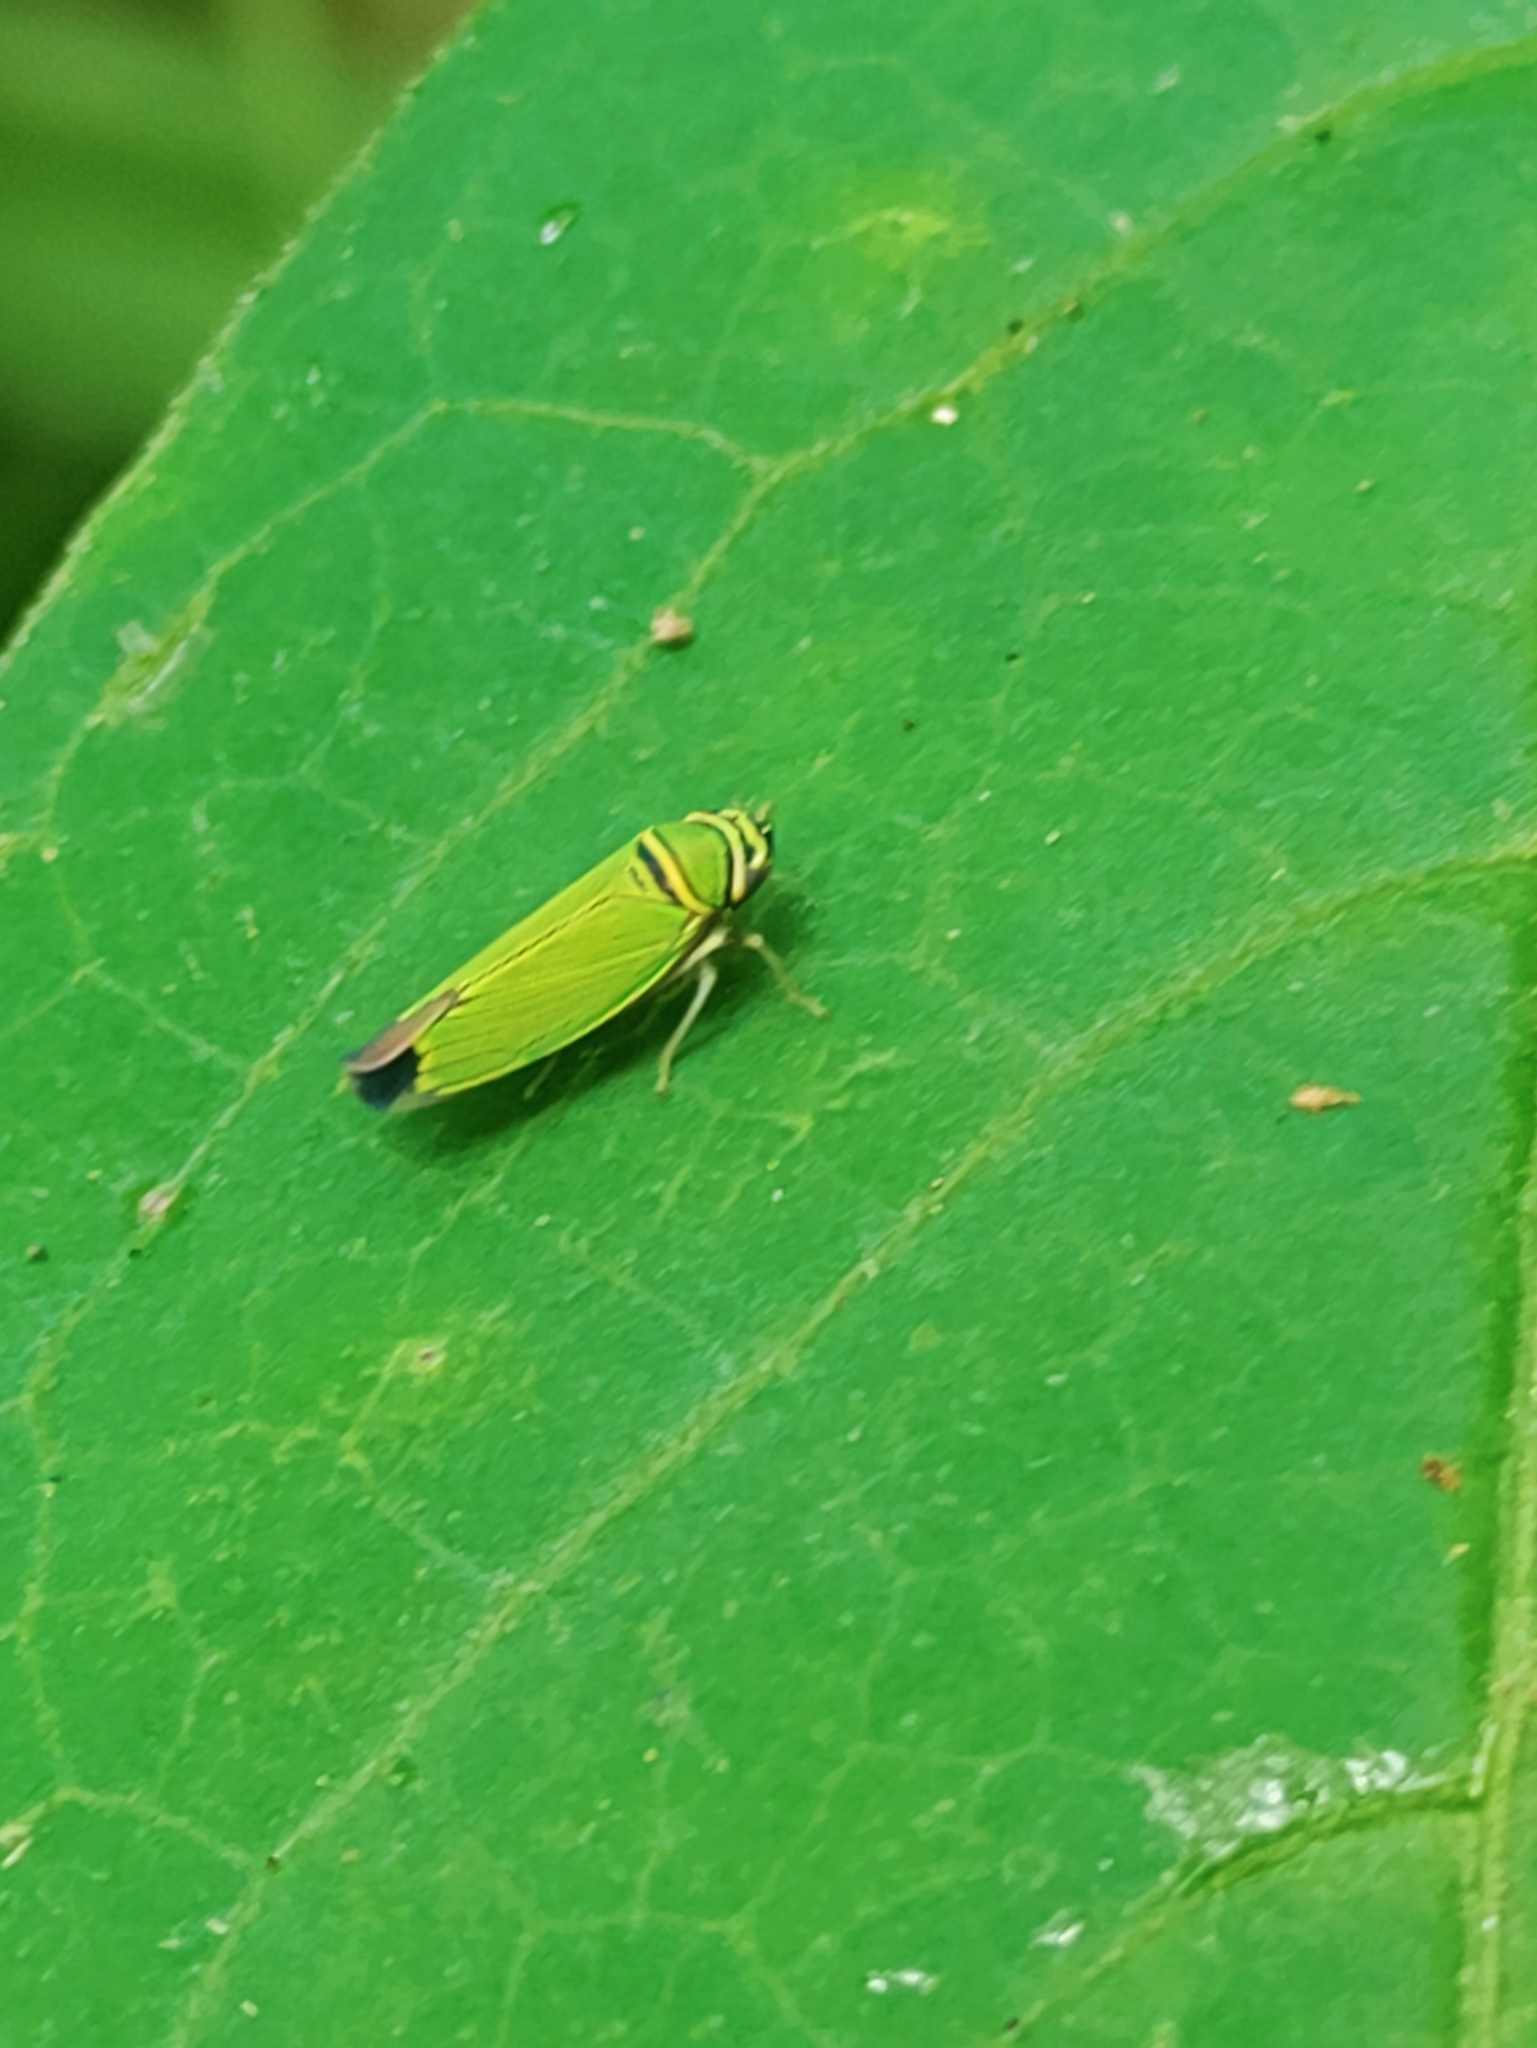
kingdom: Animalia
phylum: Arthropoda
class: Insecta
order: Hemiptera
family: Cicadellidae
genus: Tylozygus
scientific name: Tylozygus geometricus
